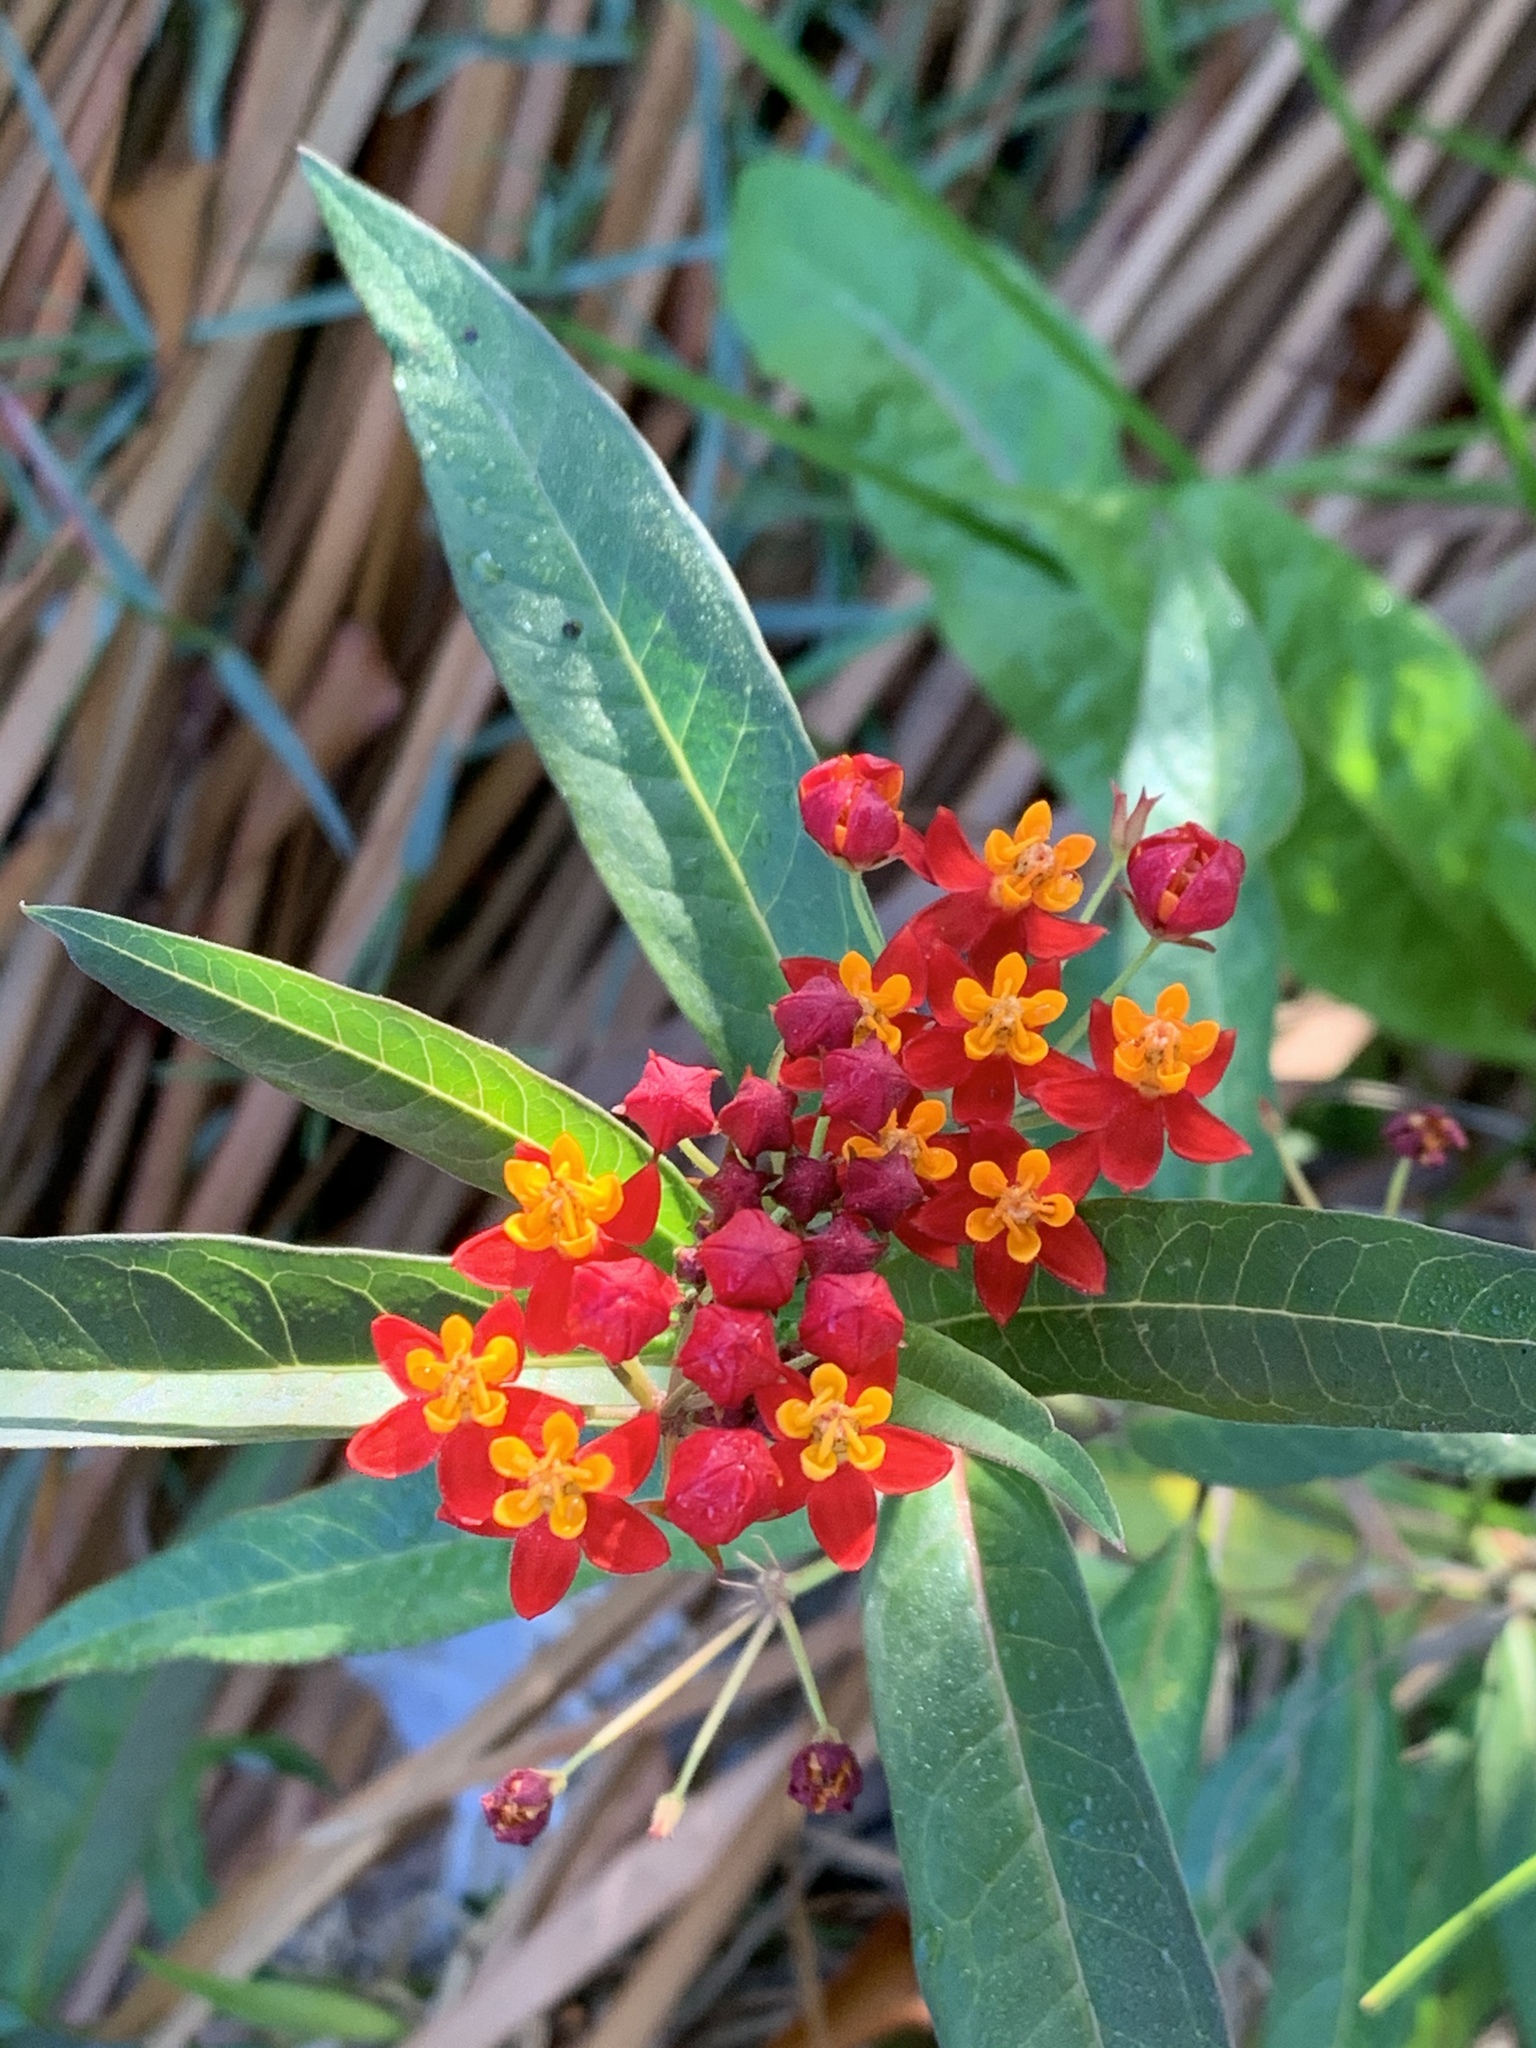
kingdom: Plantae
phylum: Tracheophyta
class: Magnoliopsida
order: Gentianales
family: Apocynaceae
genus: Asclepias
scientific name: Asclepias curassavica
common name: Bloodflower
